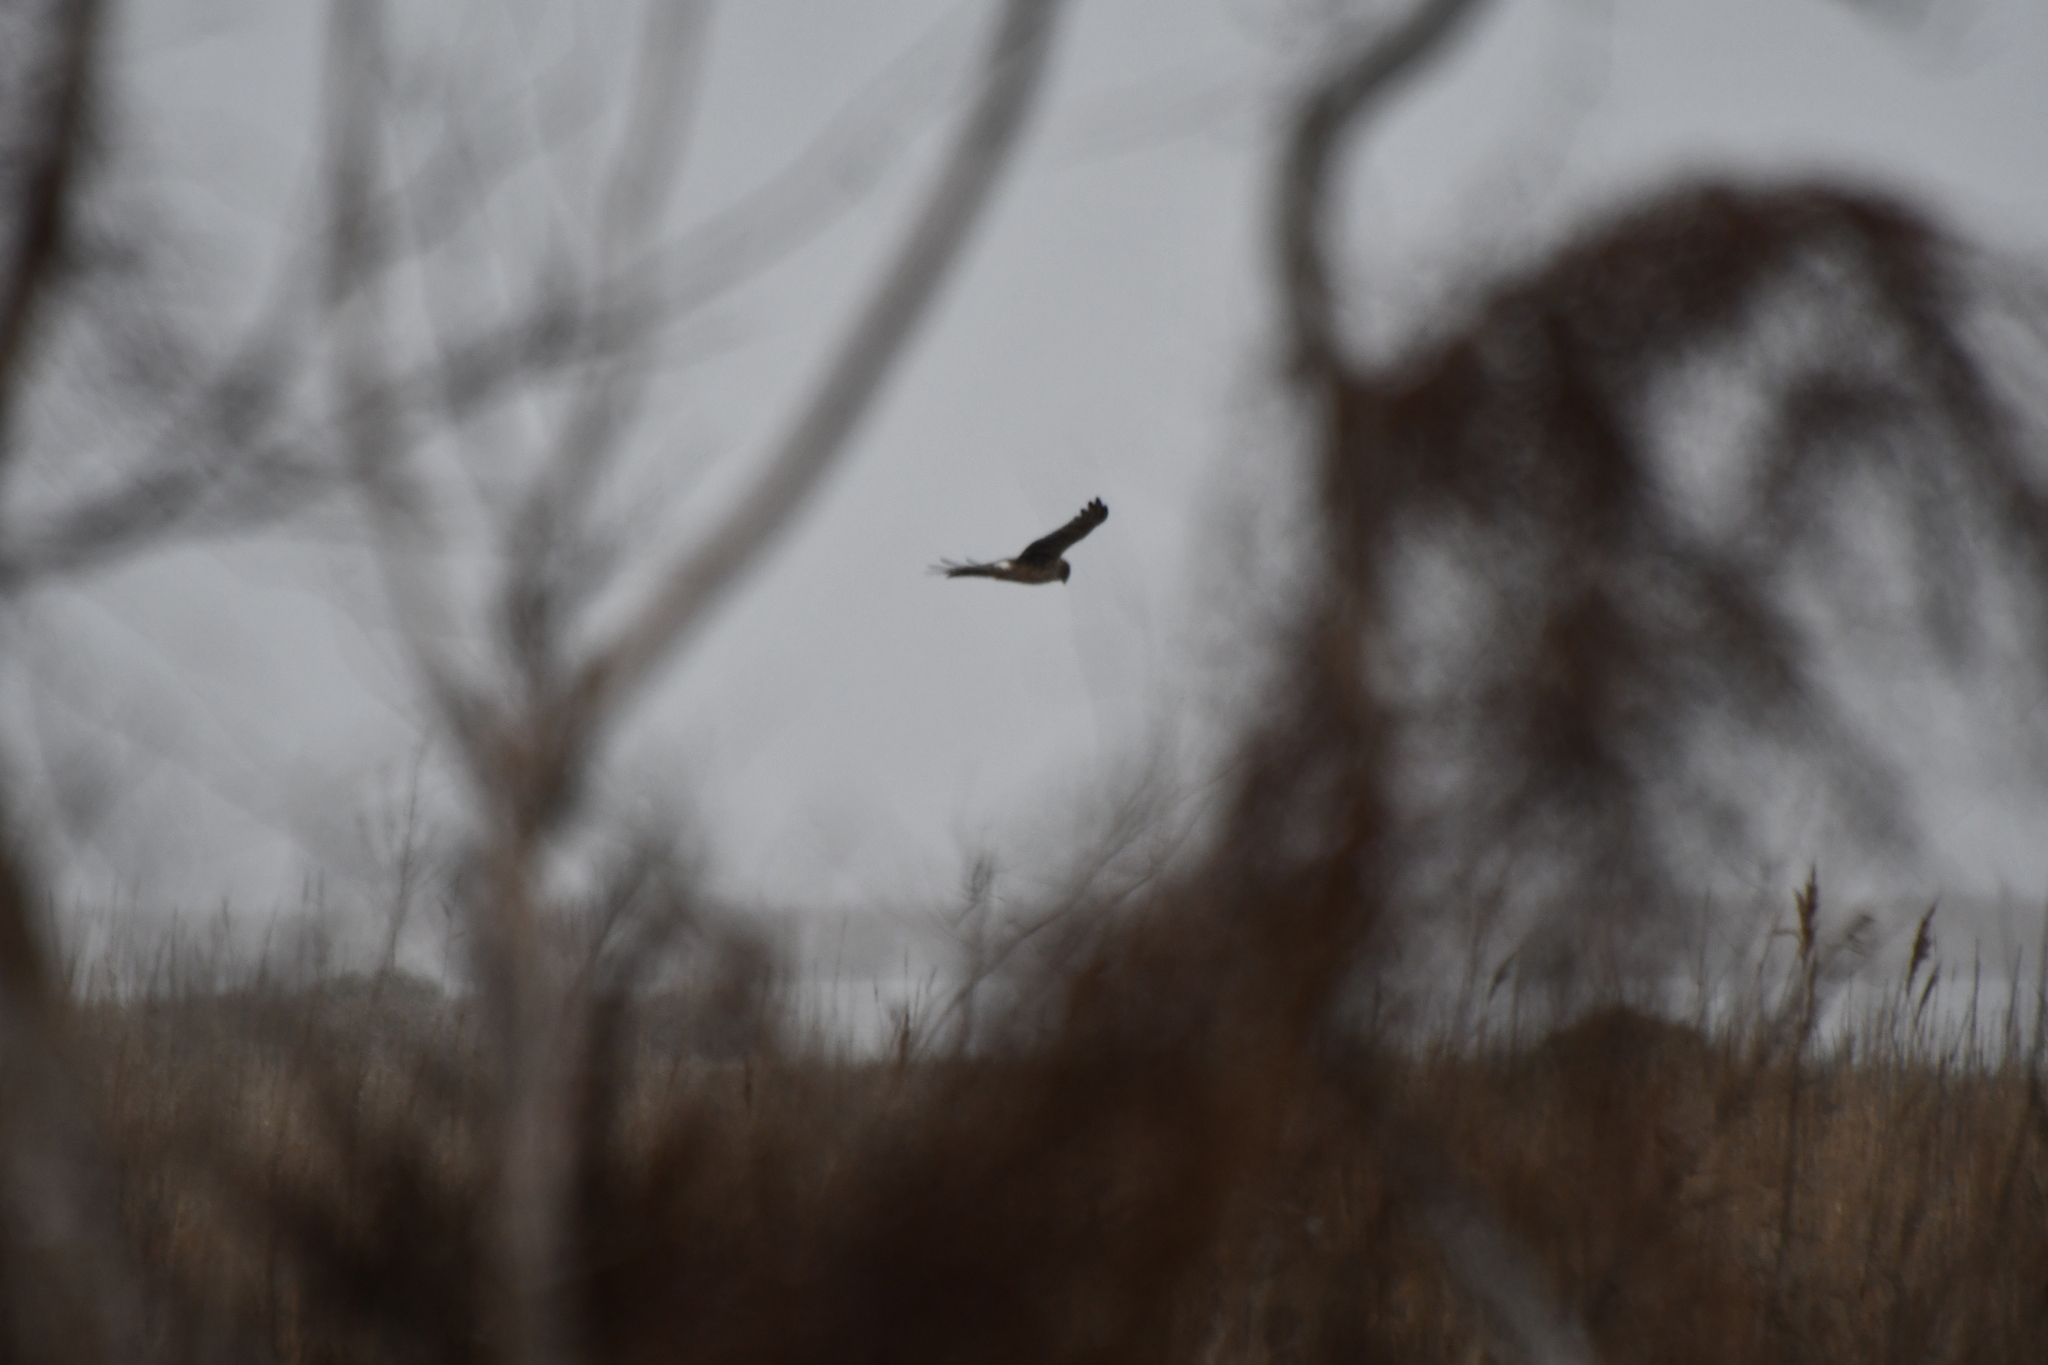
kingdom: Animalia
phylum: Chordata
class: Aves
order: Accipitriformes
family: Accipitridae
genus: Circus
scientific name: Circus cyaneus
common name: Hen harrier
